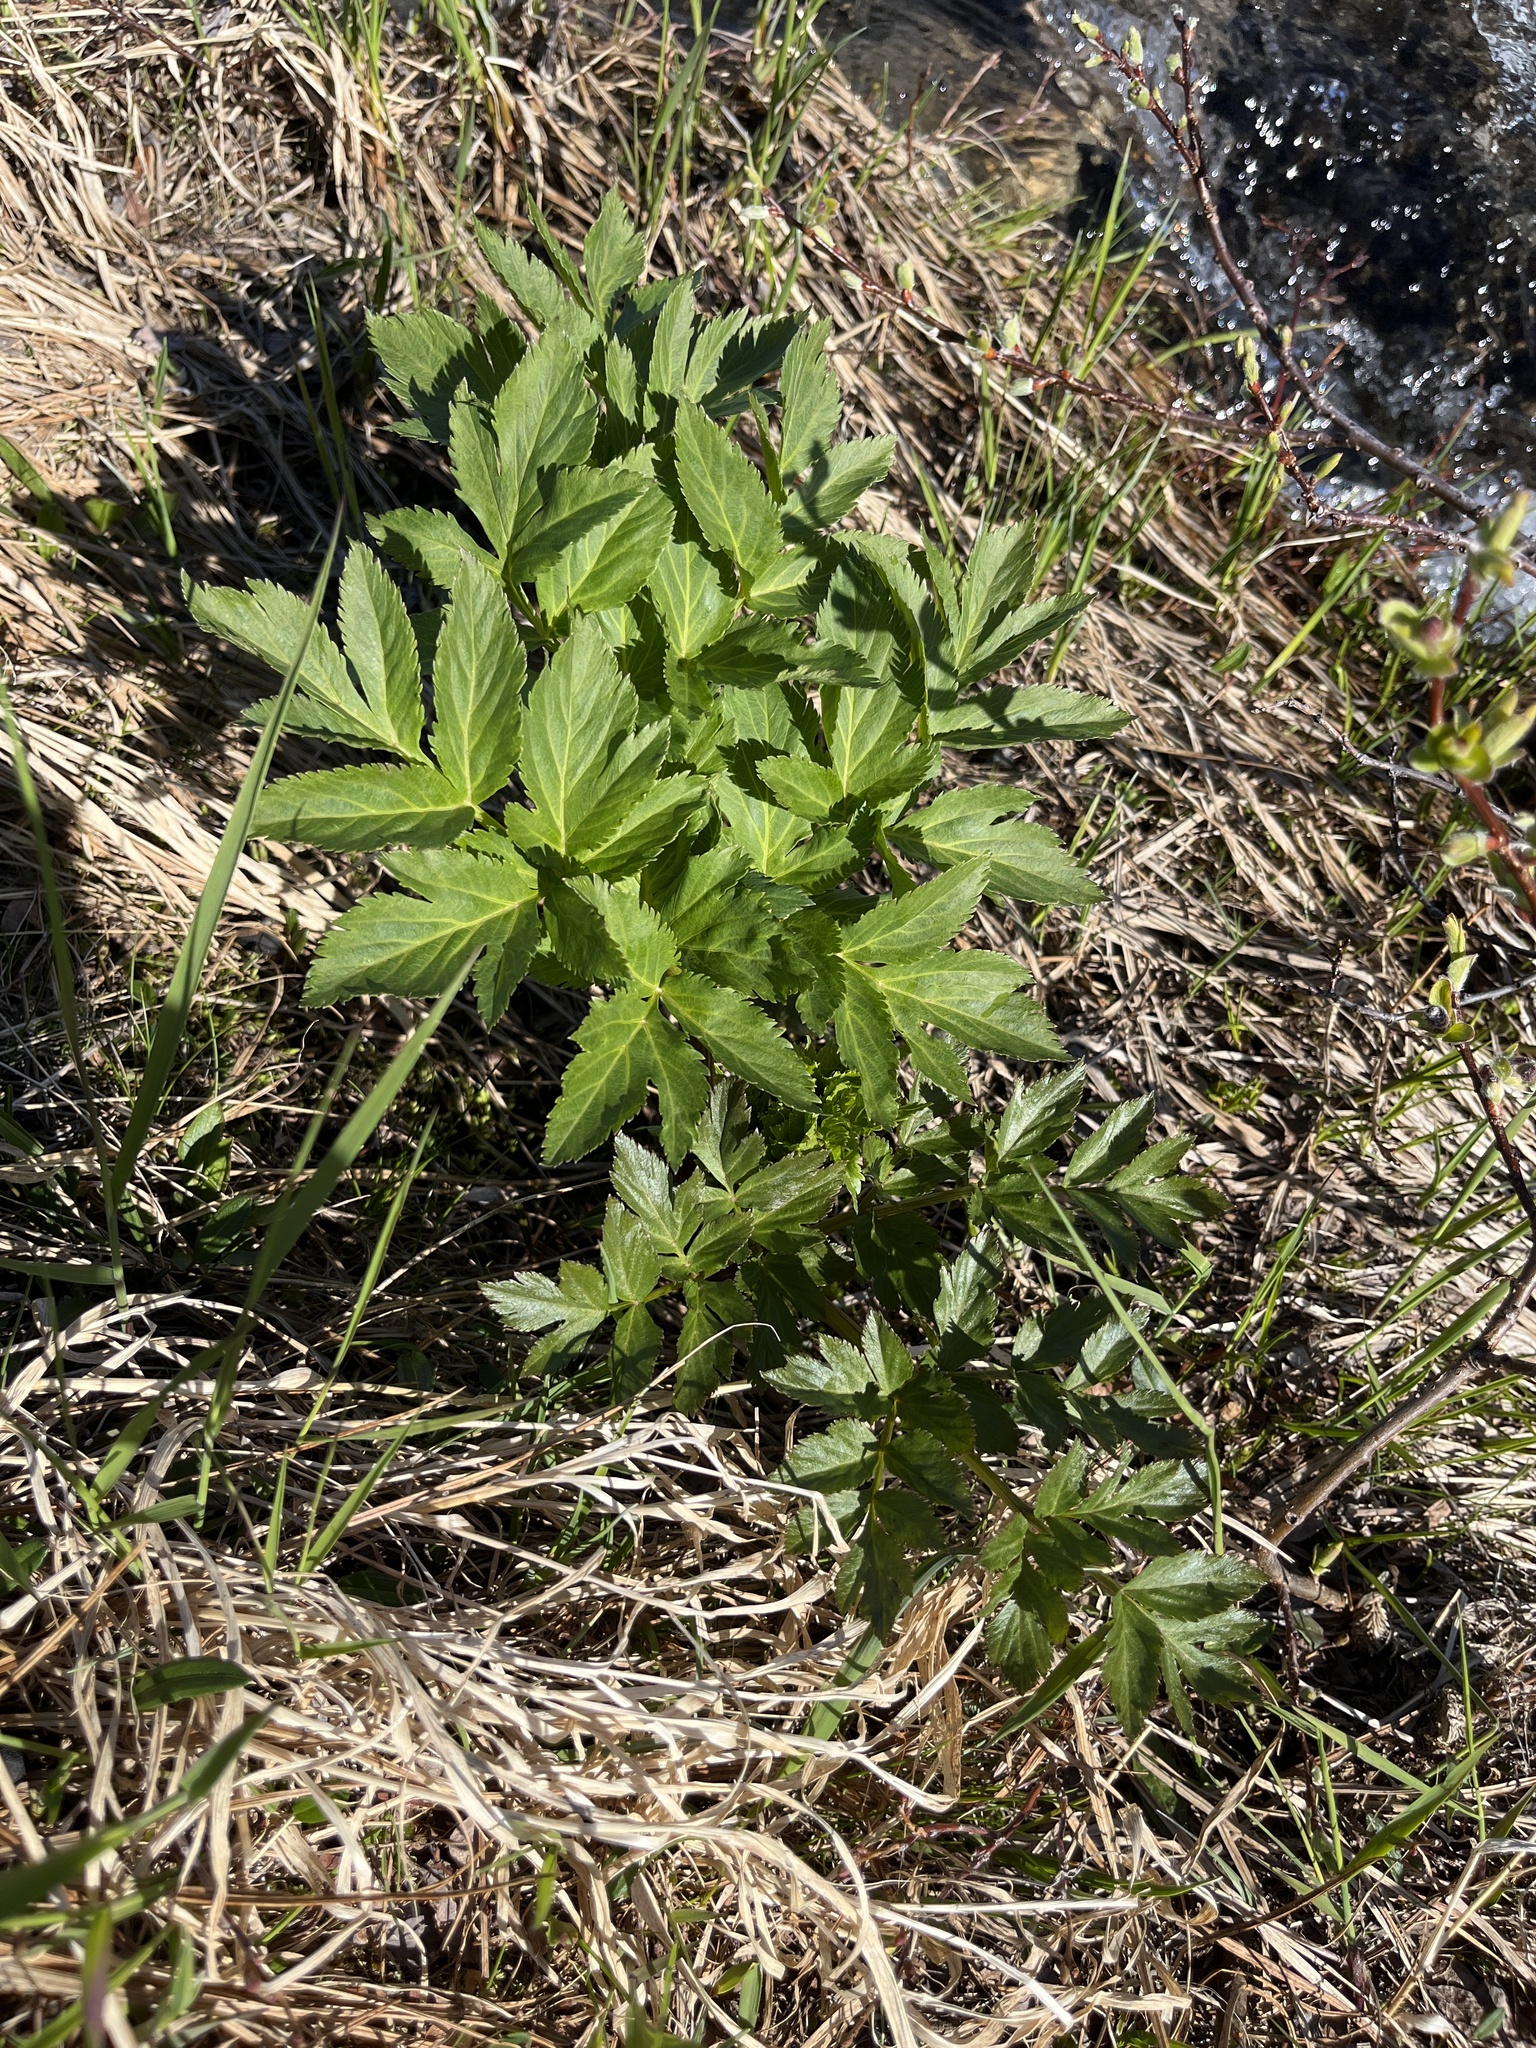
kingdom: Plantae
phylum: Tracheophyta
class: Magnoliopsida
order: Apiales
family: Apiaceae
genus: Angelica
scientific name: Angelica archangelica
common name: Garden angelica
